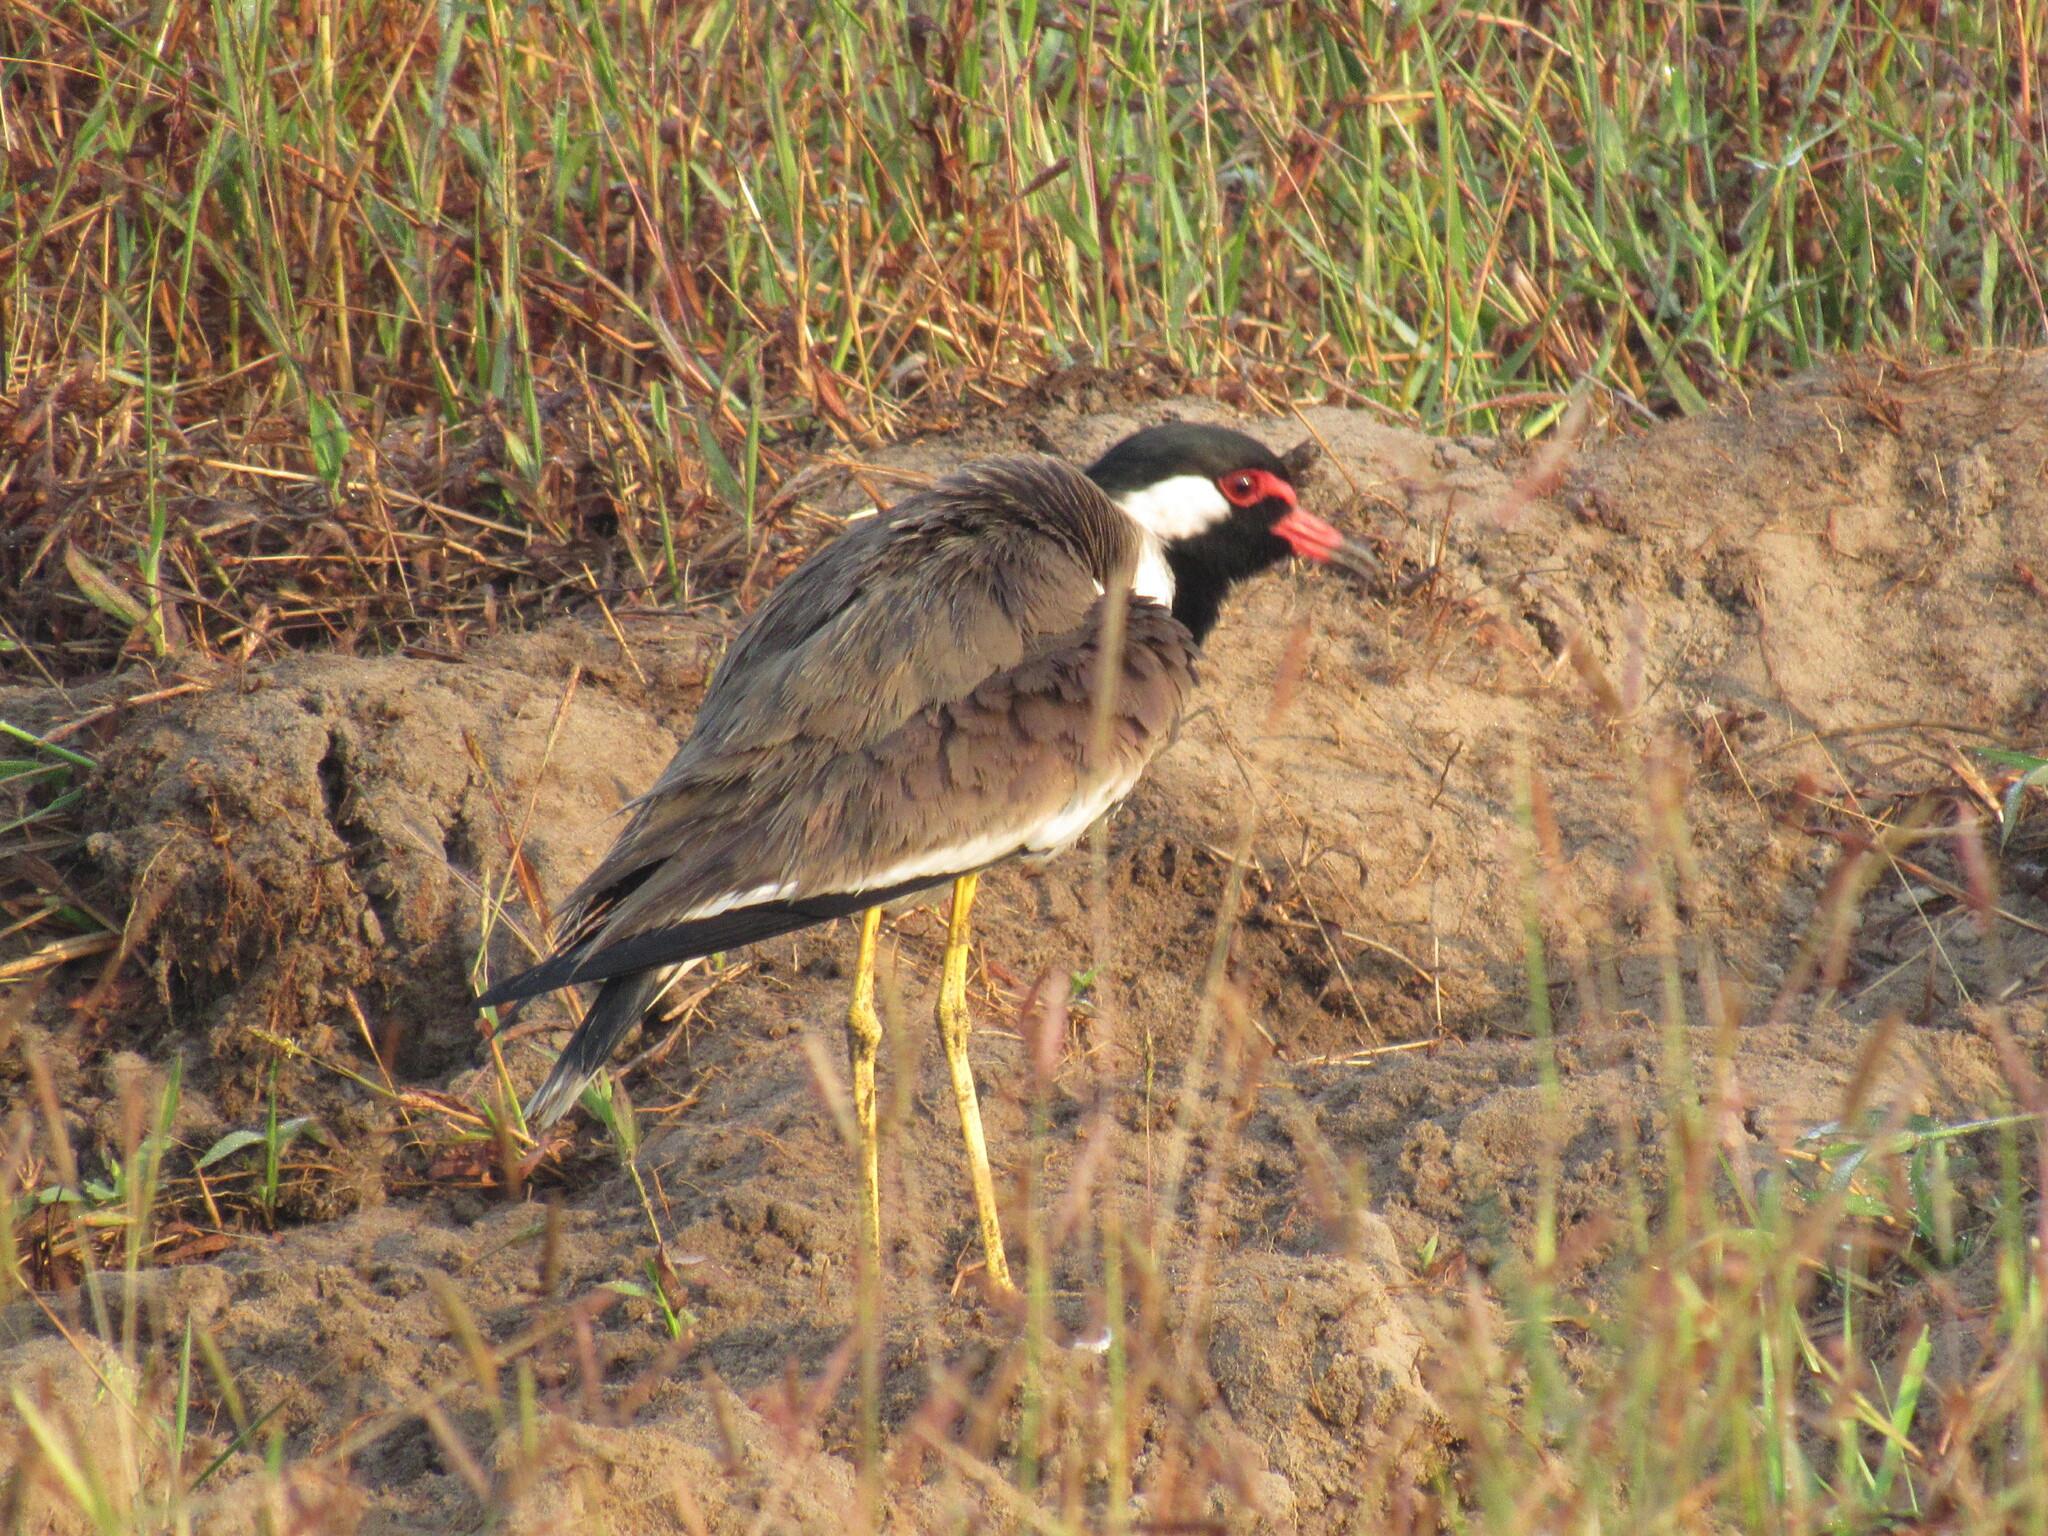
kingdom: Animalia
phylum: Chordata
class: Aves
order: Charadriiformes
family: Charadriidae
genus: Vanellus
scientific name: Vanellus indicus
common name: Red-wattled lapwing
